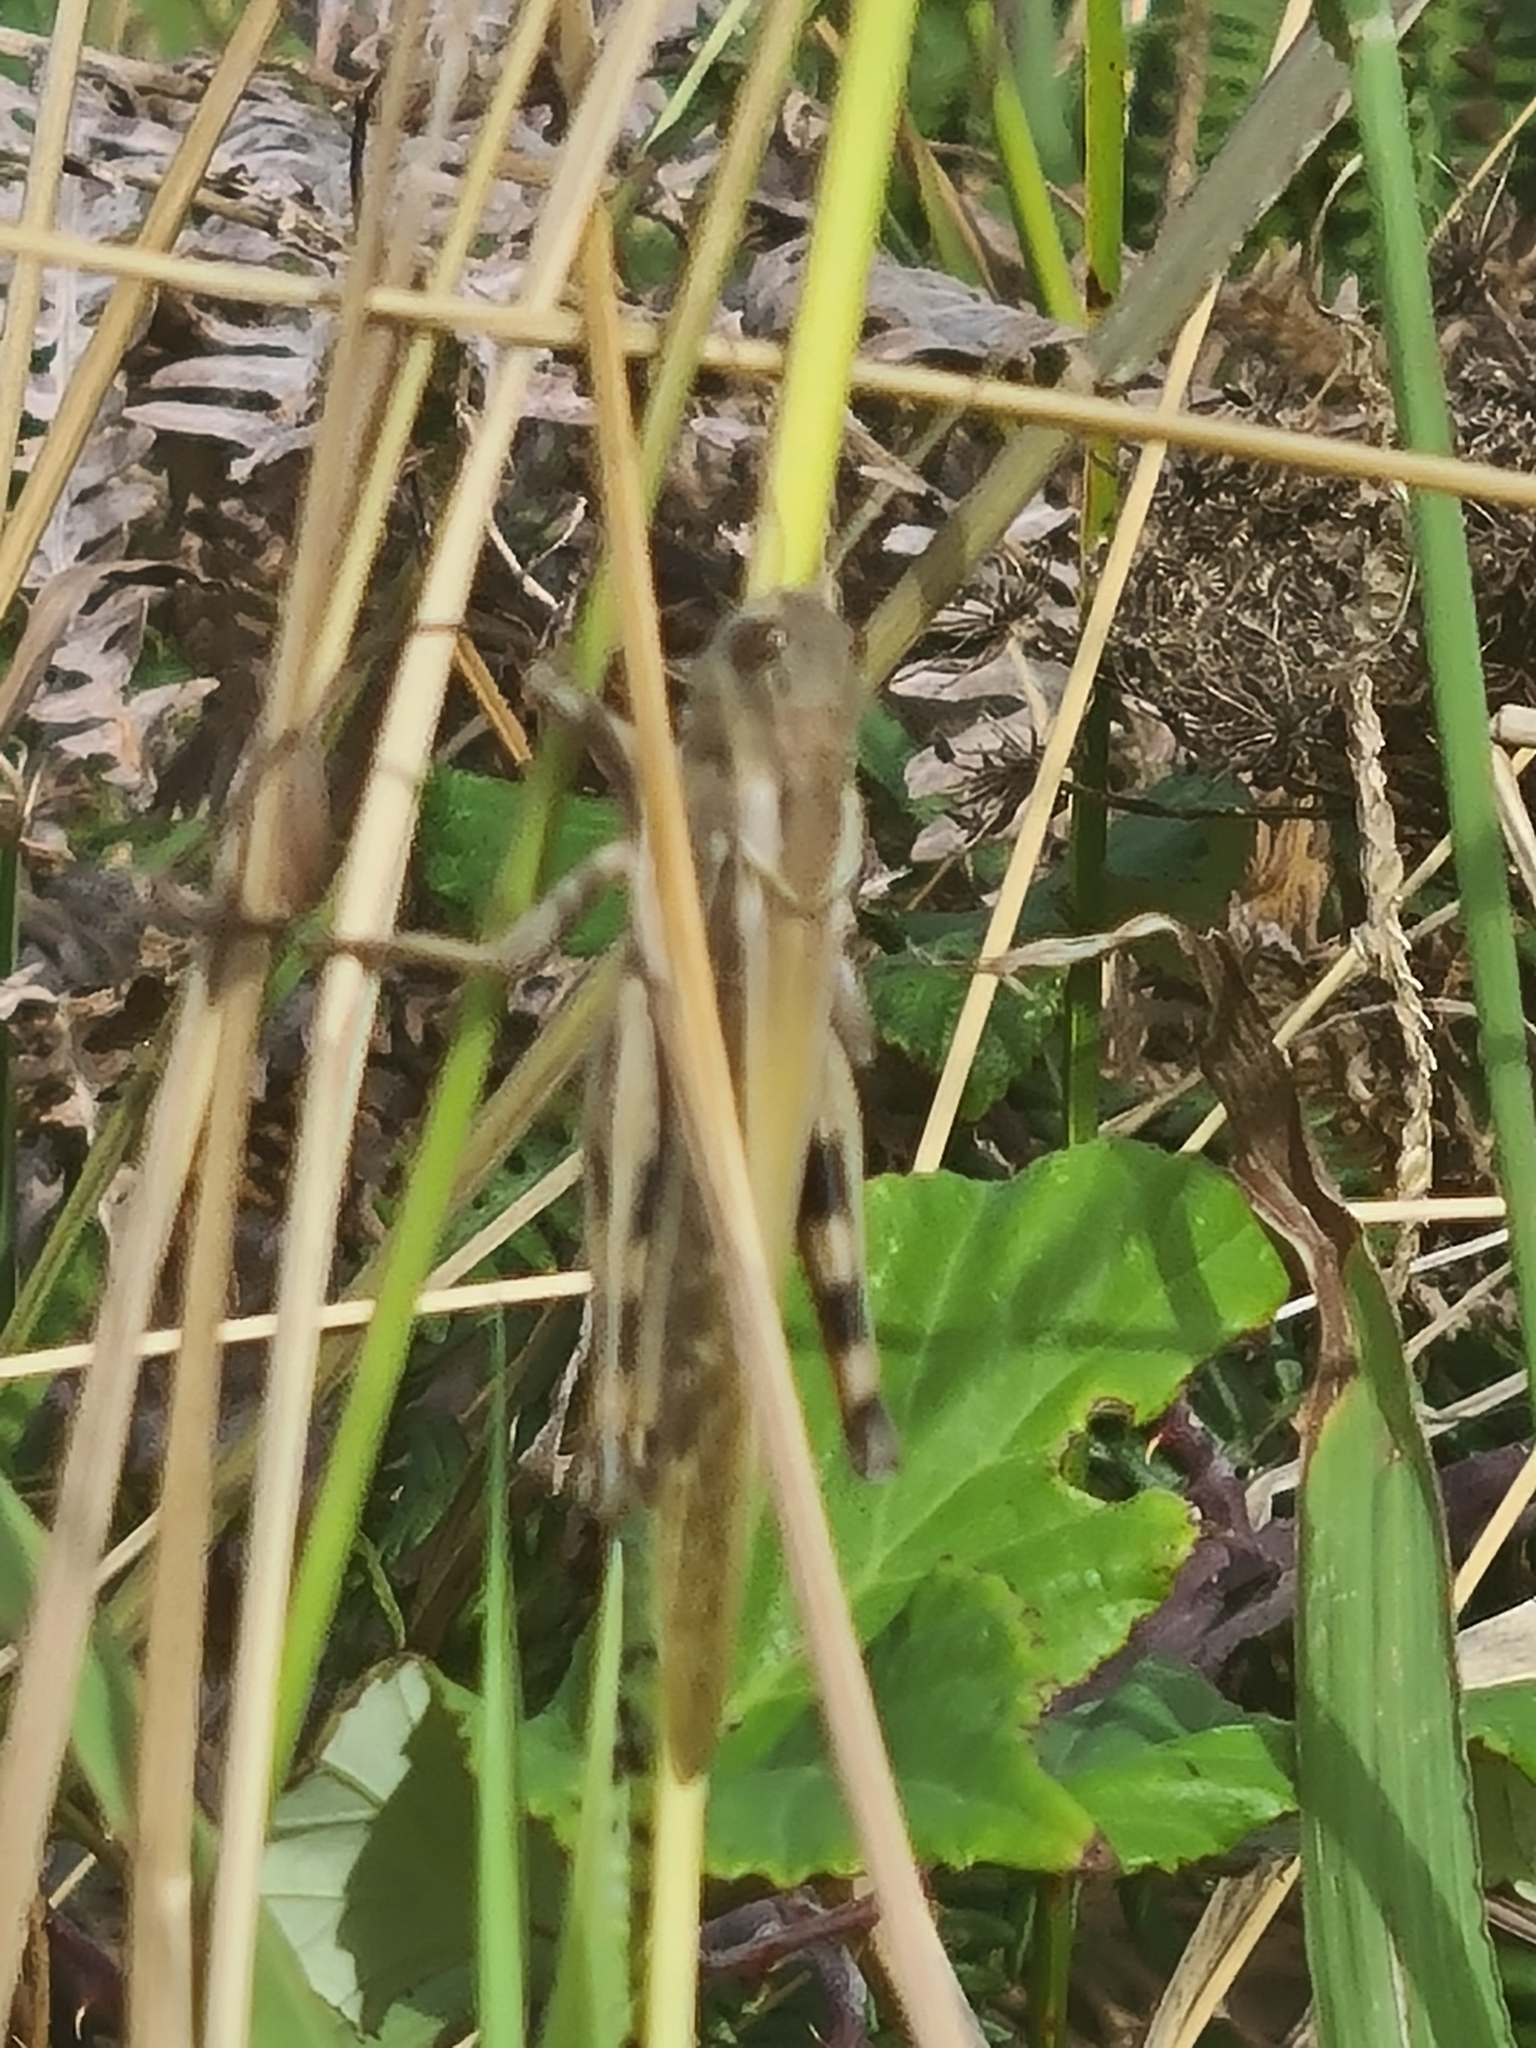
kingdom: Animalia
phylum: Arthropoda
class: Insecta
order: Orthoptera
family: Acrididae
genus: Locusta
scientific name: Locusta migratoria
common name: Migratory locust
